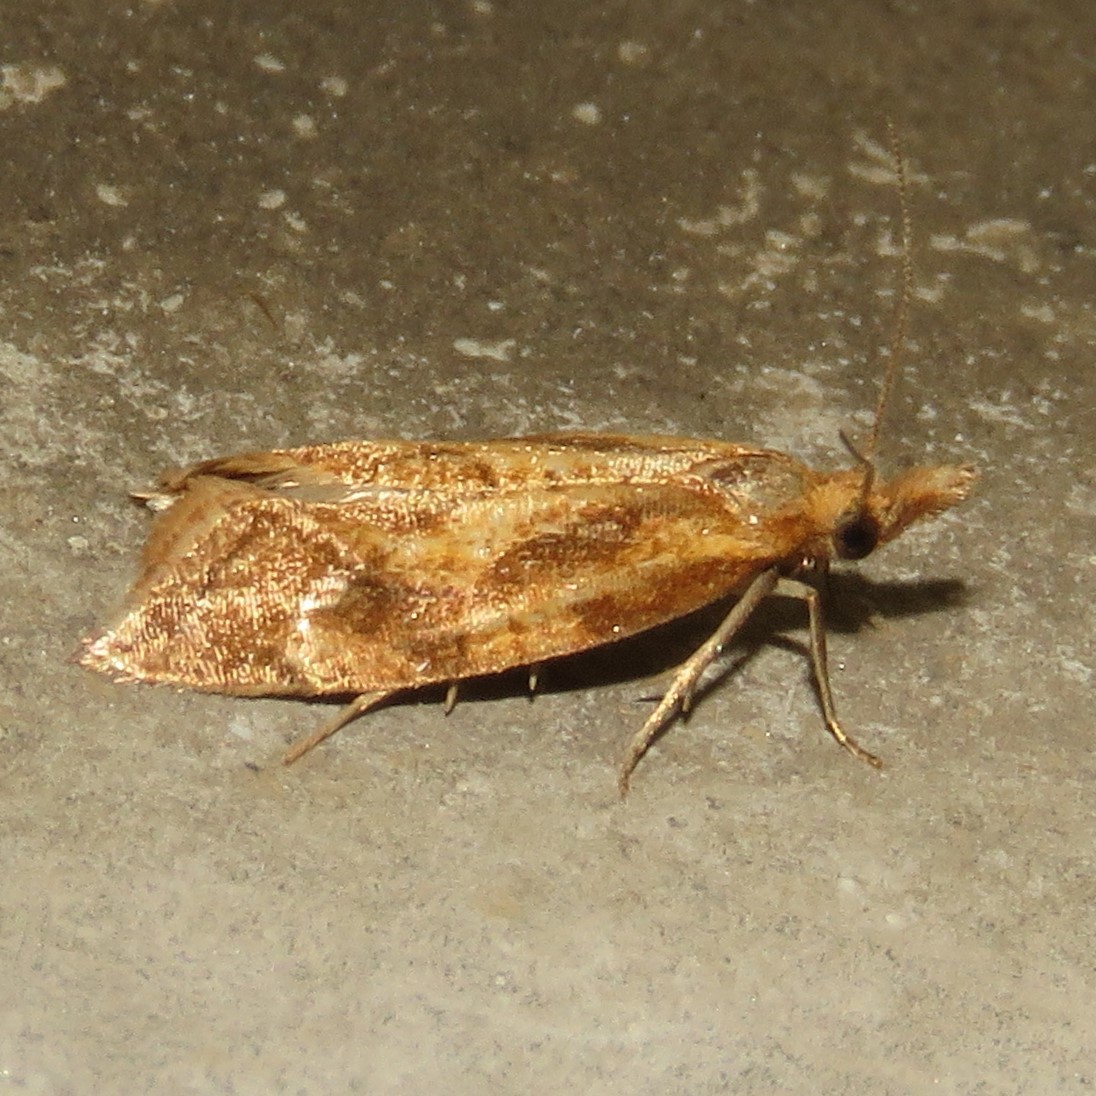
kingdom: Animalia
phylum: Arthropoda
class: Insecta
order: Lepidoptera
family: Tortricidae
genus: Aethes
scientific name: Aethes biscana
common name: Reddish aethes
